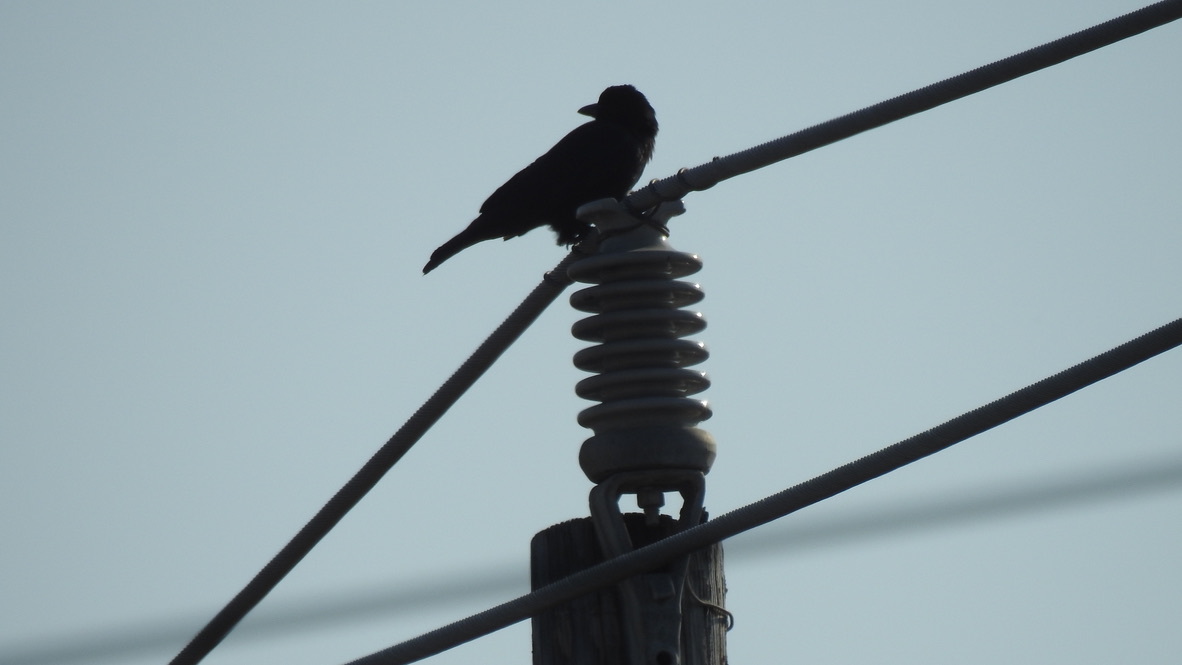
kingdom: Animalia
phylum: Chordata
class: Aves
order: Passeriformes
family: Corvidae
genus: Corvus
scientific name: Corvus brachyrhynchos
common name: American crow
